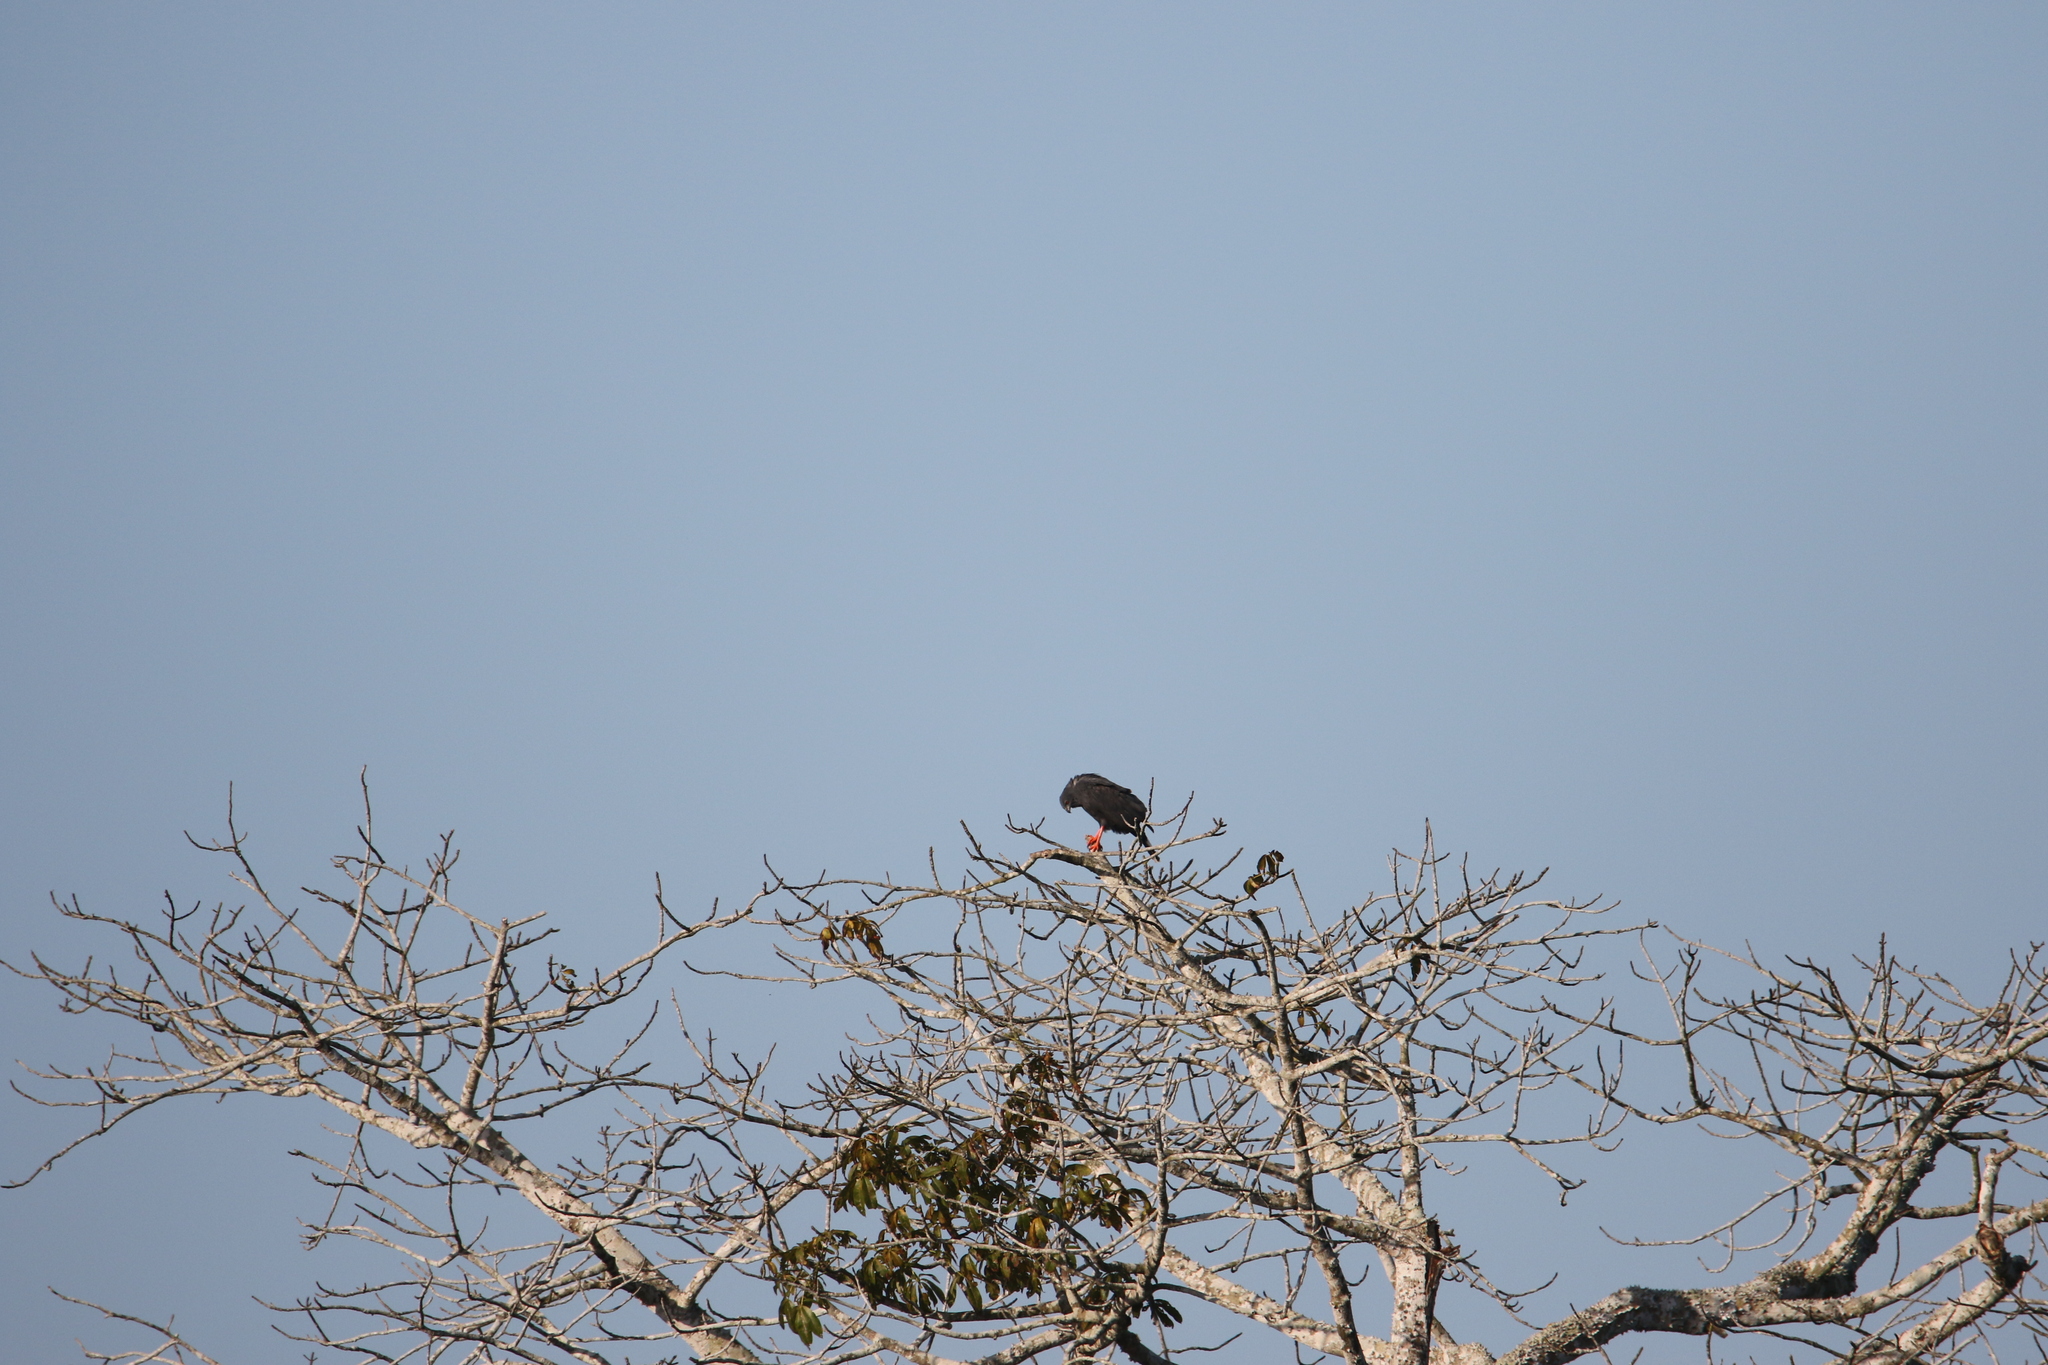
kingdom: Animalia
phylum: Chordata
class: Aves
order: Accipitriformes
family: Accipitridae
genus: Geranospiza
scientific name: Geranospiza caerulescens
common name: Crane hawk
